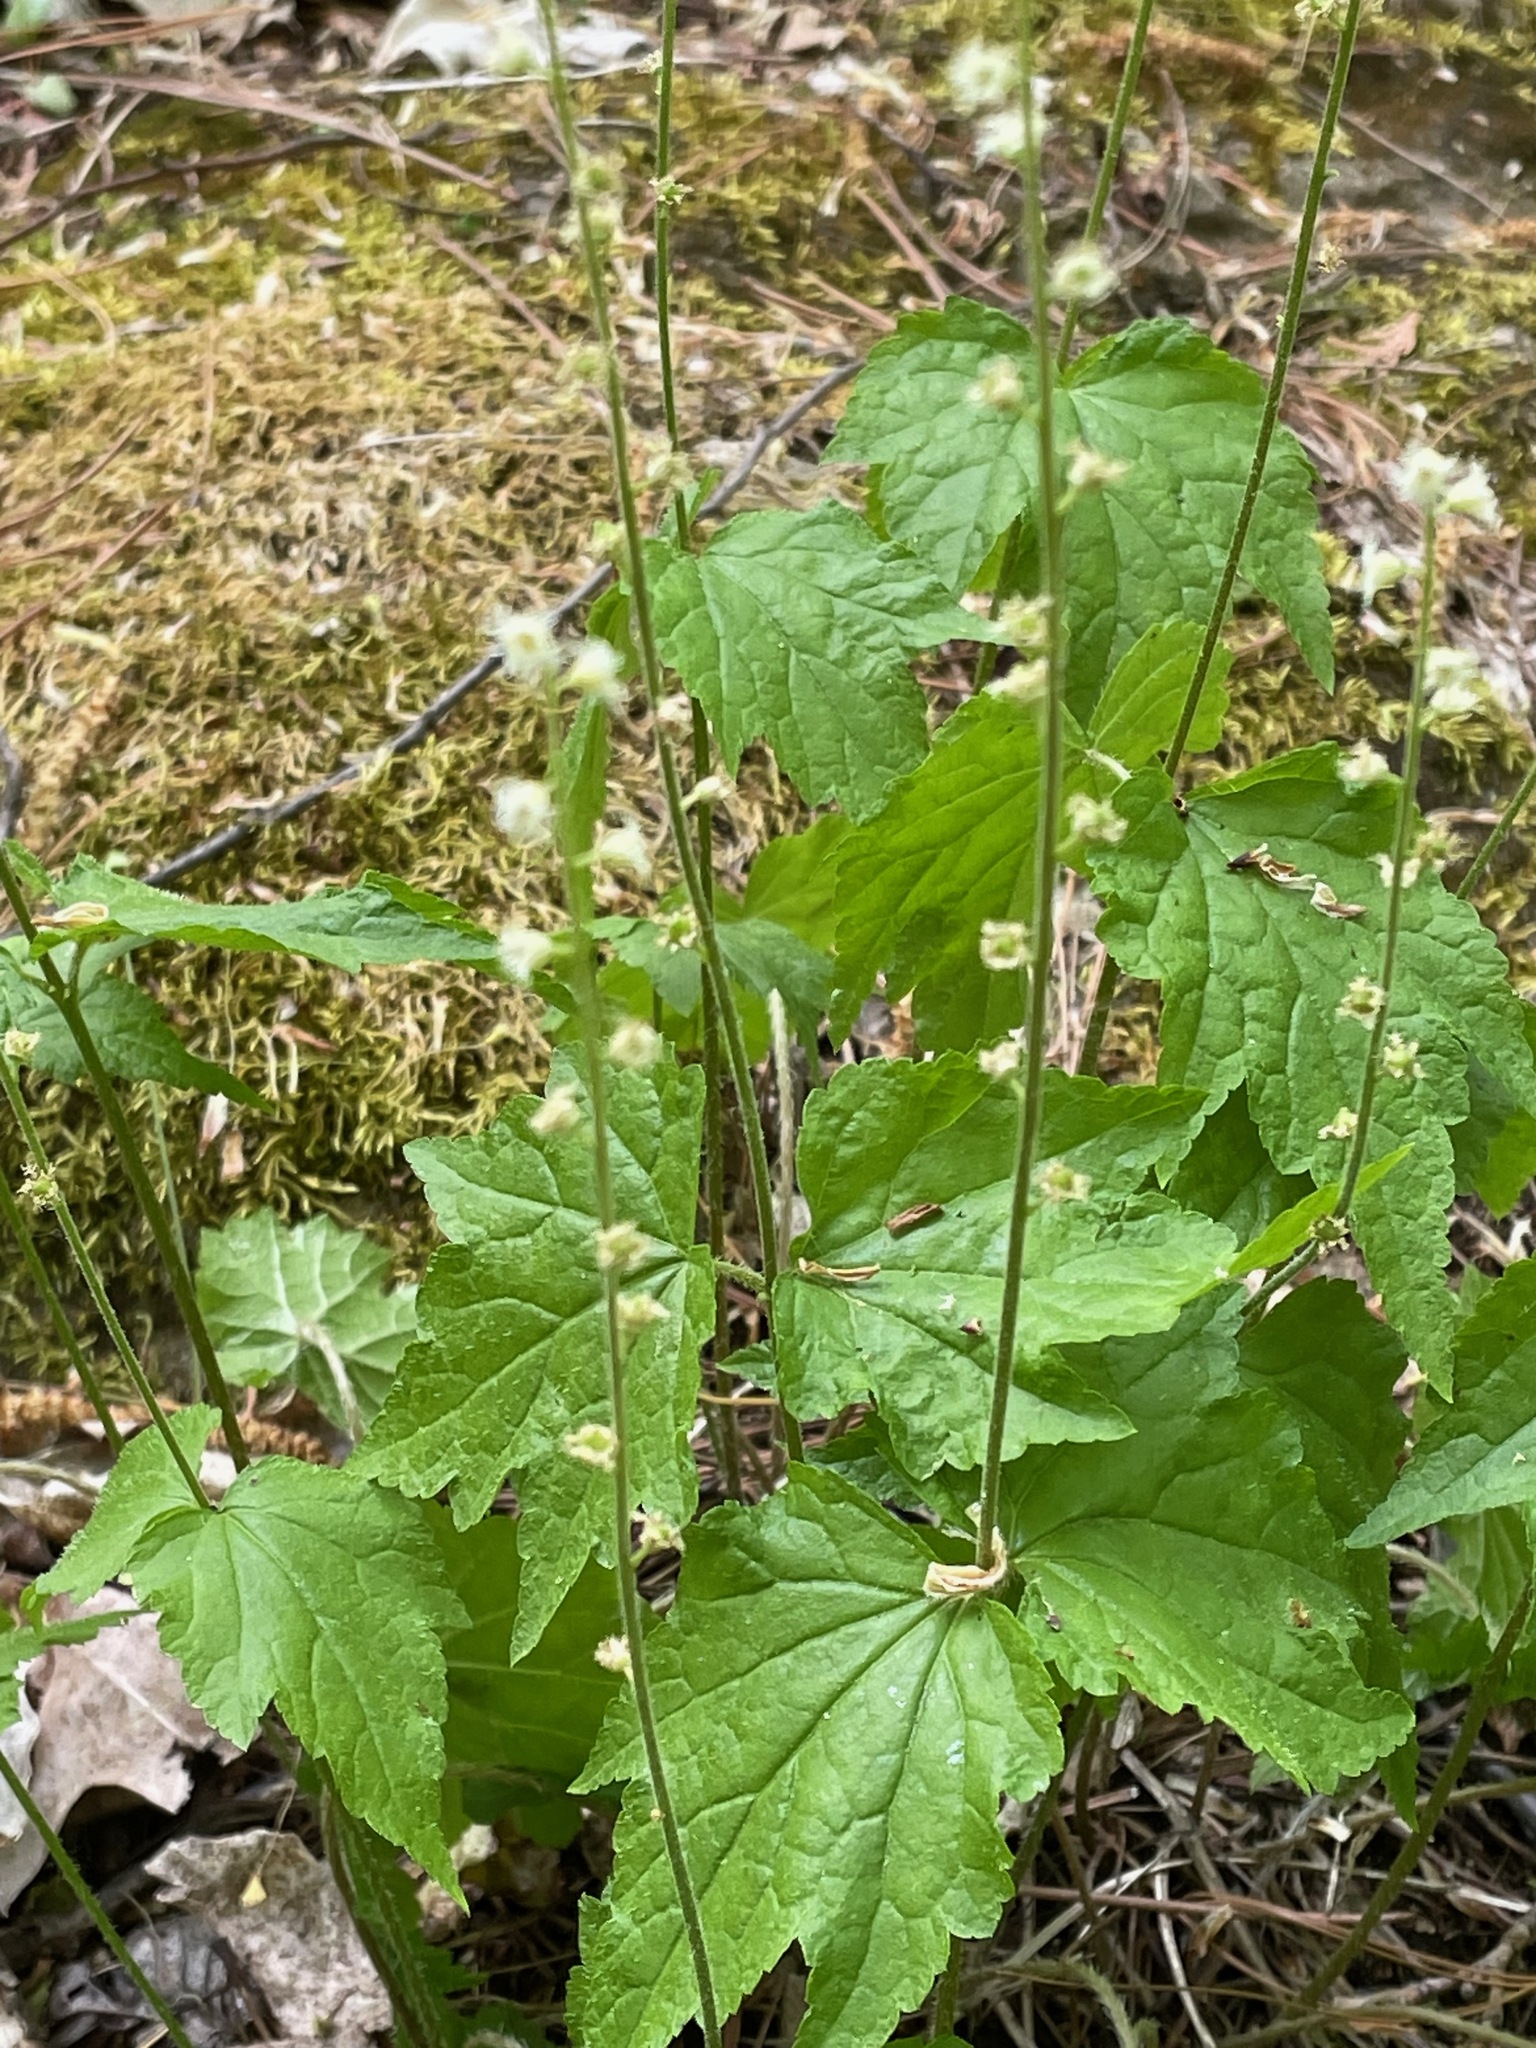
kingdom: Plantae
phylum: Tracheophyta
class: Magnoliopsida
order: Saxifragales
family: Saxifragaceae
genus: Mitella
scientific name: Mitella diphylla
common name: Coolwort
